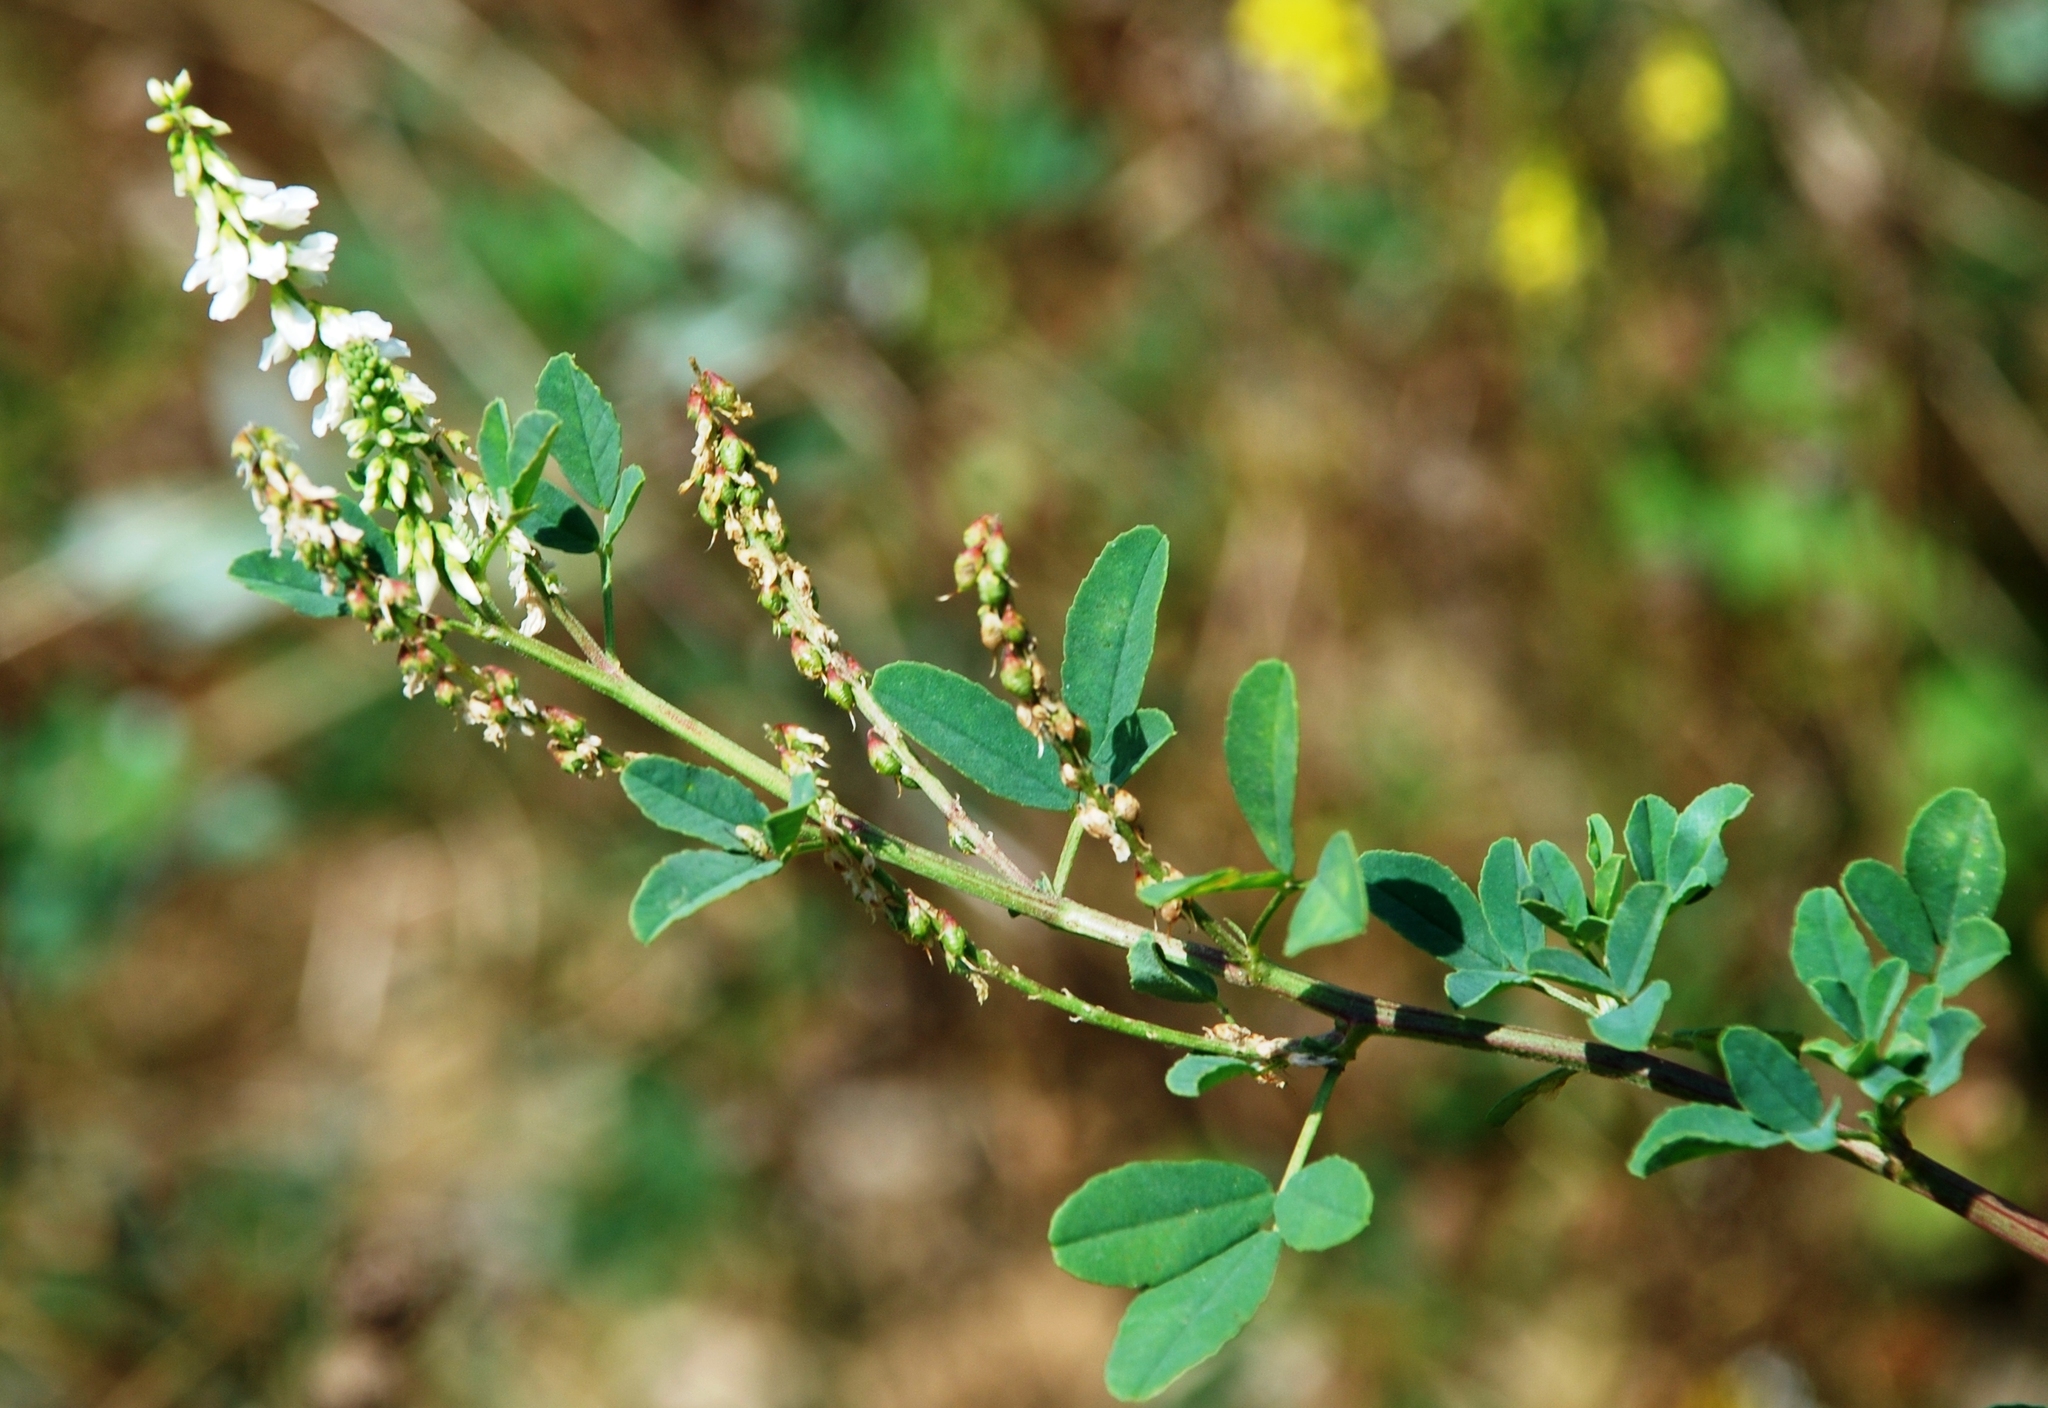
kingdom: Plantae
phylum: Tracheophyta
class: Magnoliopsida
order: Fabales
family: Fabaceae
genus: Melilotus
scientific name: Melilotus albus
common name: White melilot
